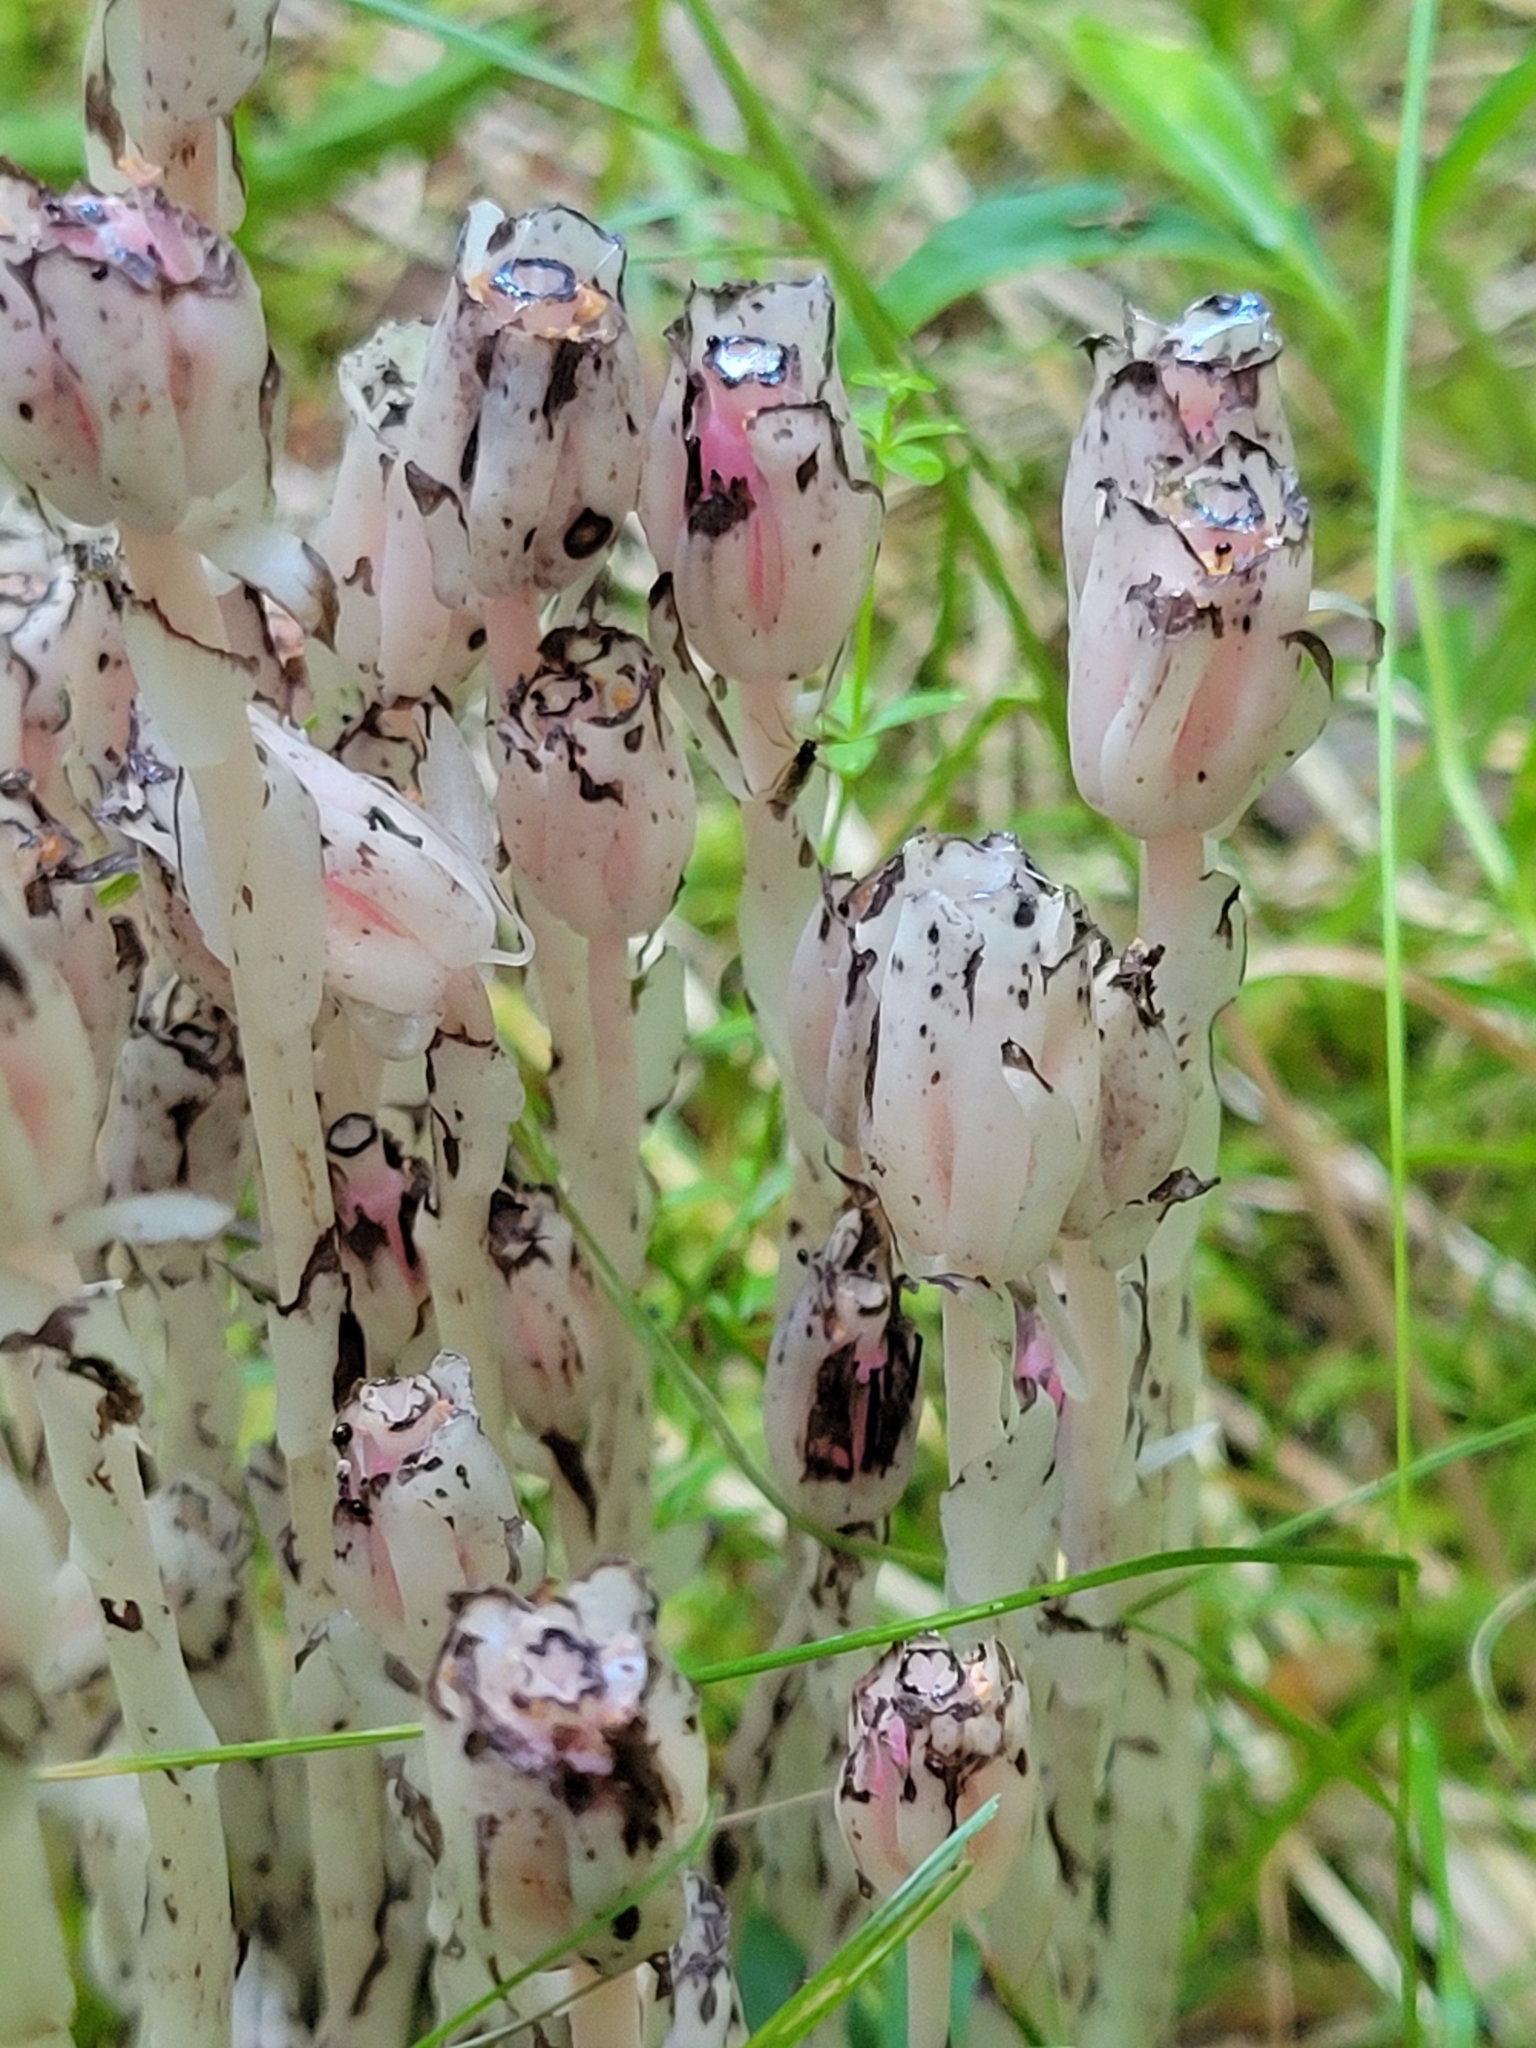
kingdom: Plantae
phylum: Tracheophyta
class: Magnoliopsida
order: Ericales
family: Ericaceae
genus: Monotropa
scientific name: Monotropa uniflora
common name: Convulsion root
